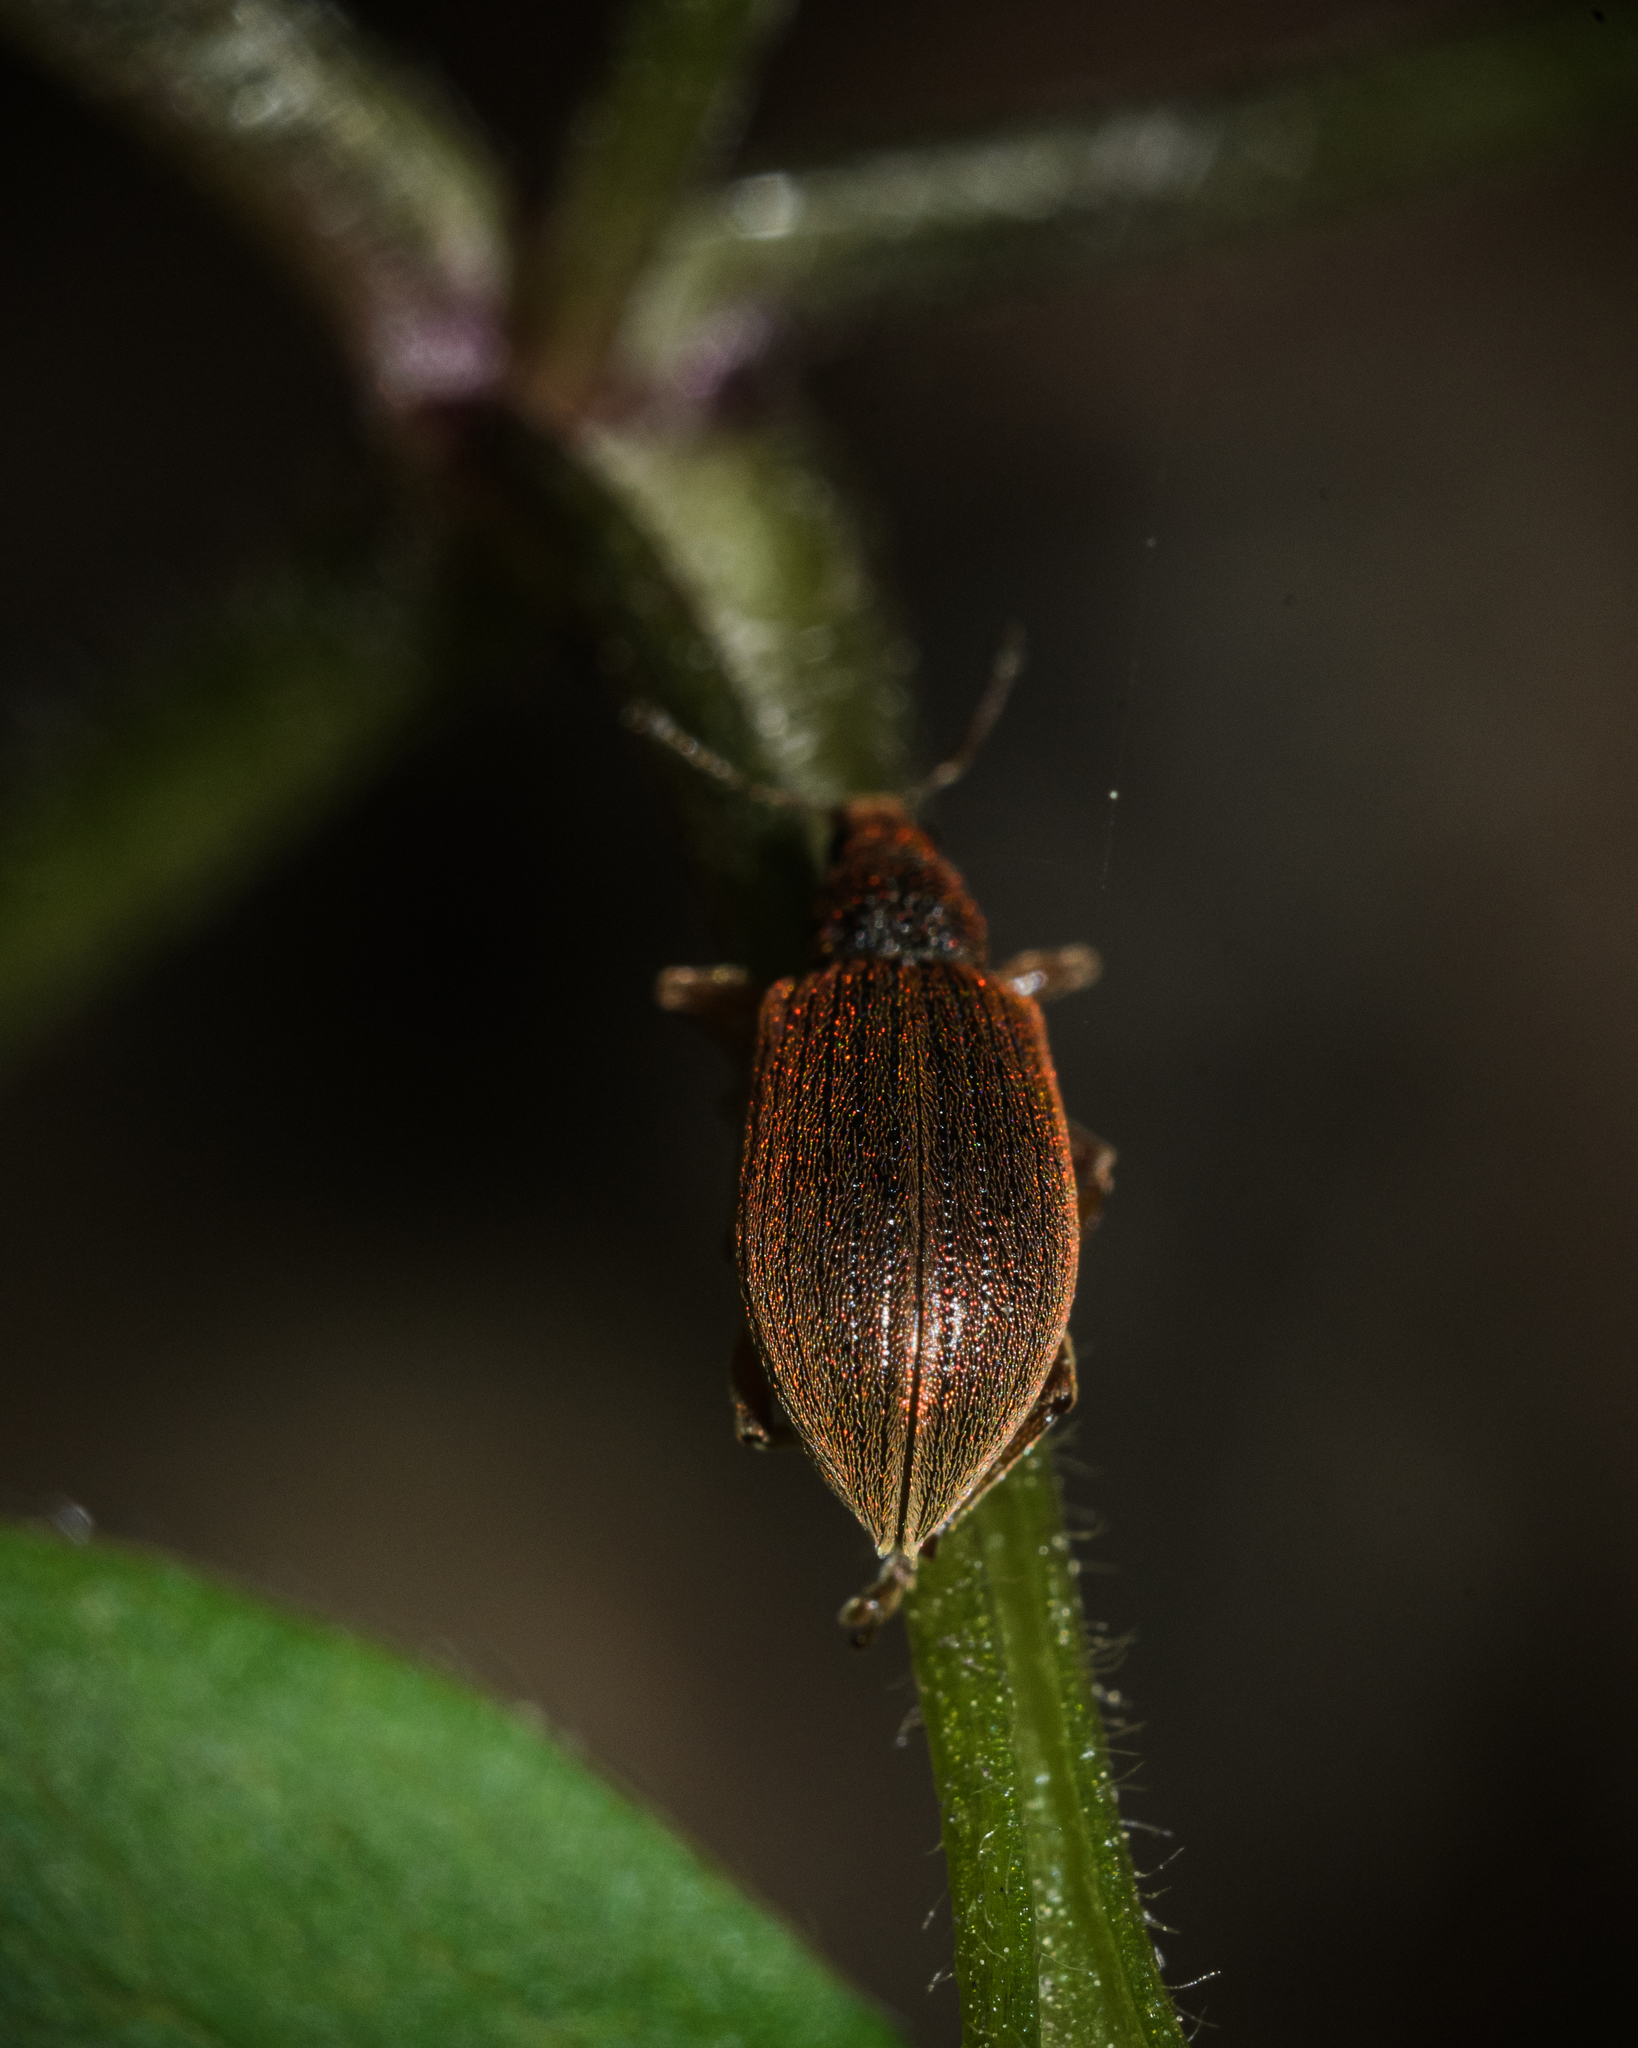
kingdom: Animalia
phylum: Arthropoda
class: Insecta
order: Coleoptera
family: Curculionidae
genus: Polydrusus
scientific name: Polydrusus mollis
